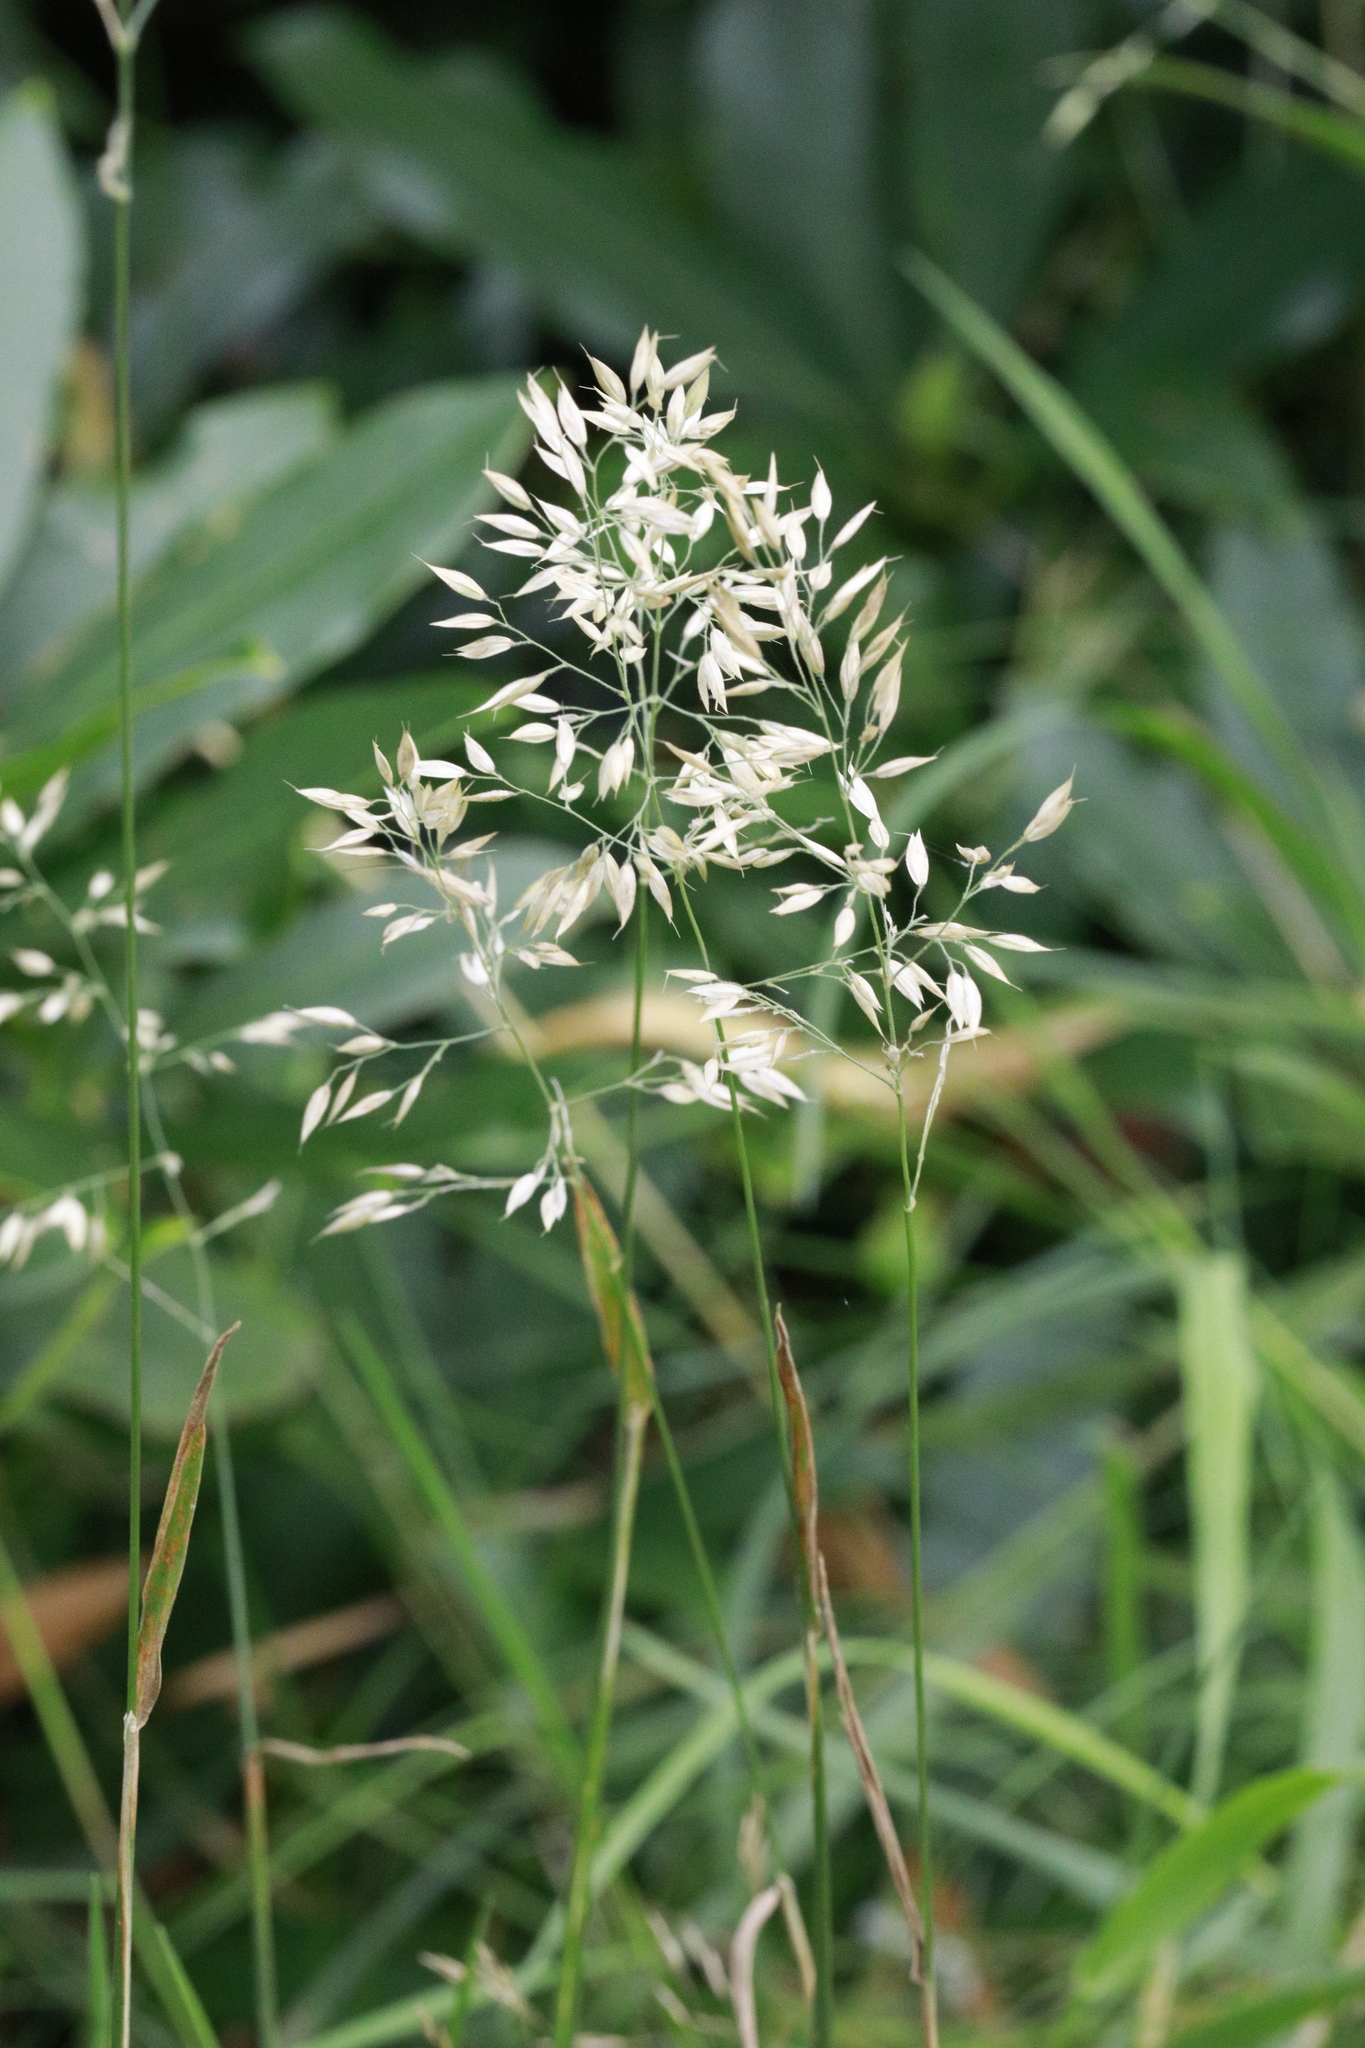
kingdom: Plantae
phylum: Tracheophyta
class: Liliopsida
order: Poales
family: Poaceae
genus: Agrostis
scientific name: Agrostis capillaris
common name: Colonial bentgrass
